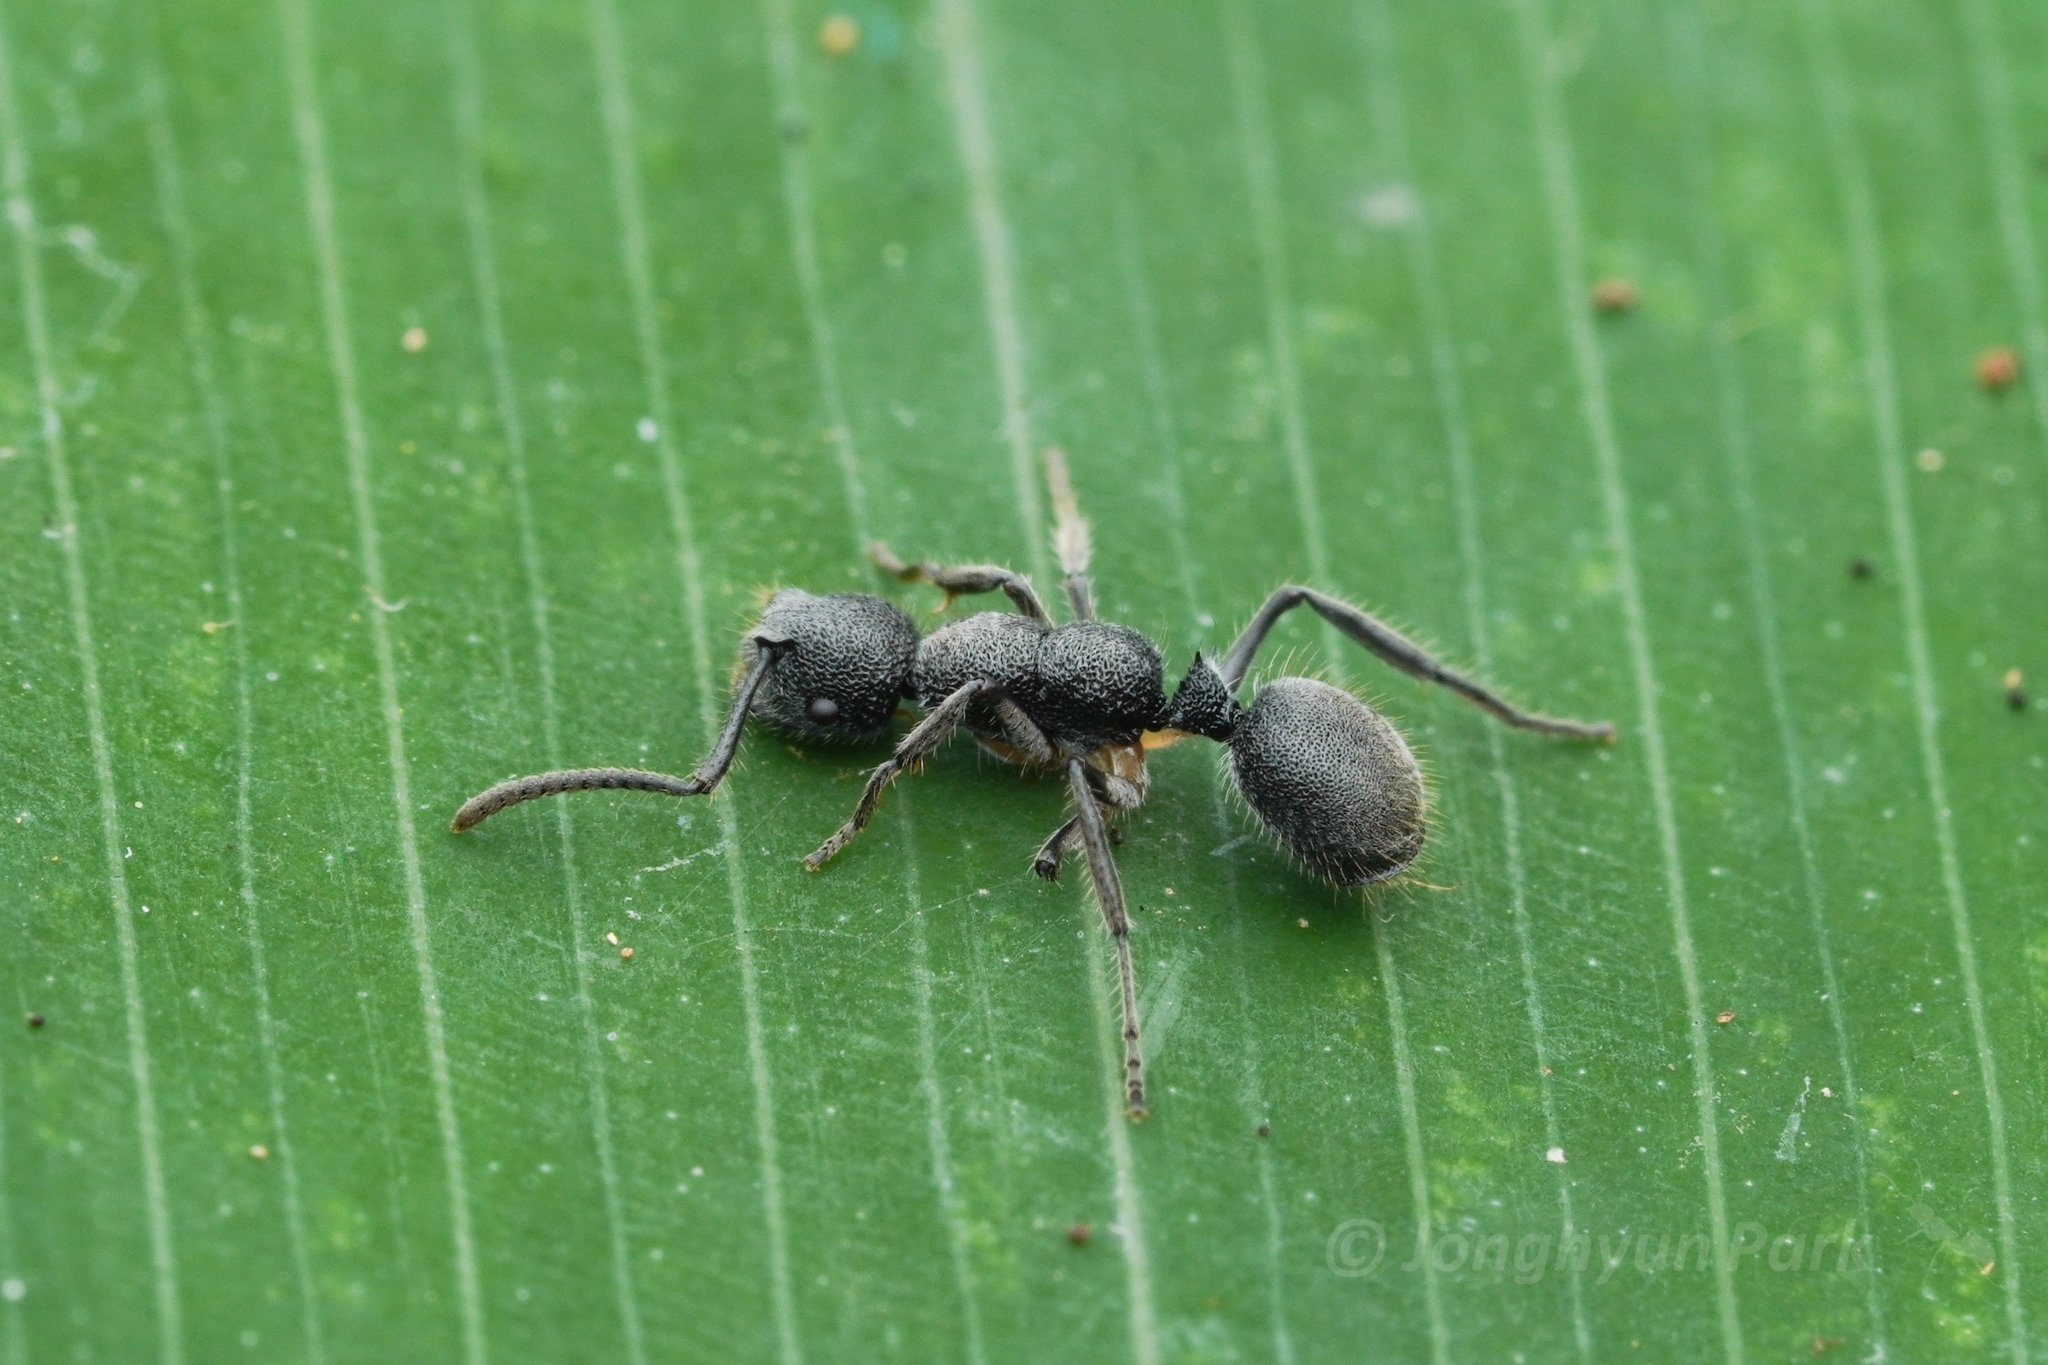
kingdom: Animalia
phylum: Arthropoda
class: Insecta
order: Hymenoptera
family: Formicidae
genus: Echinopla
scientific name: Echinopla angustata
